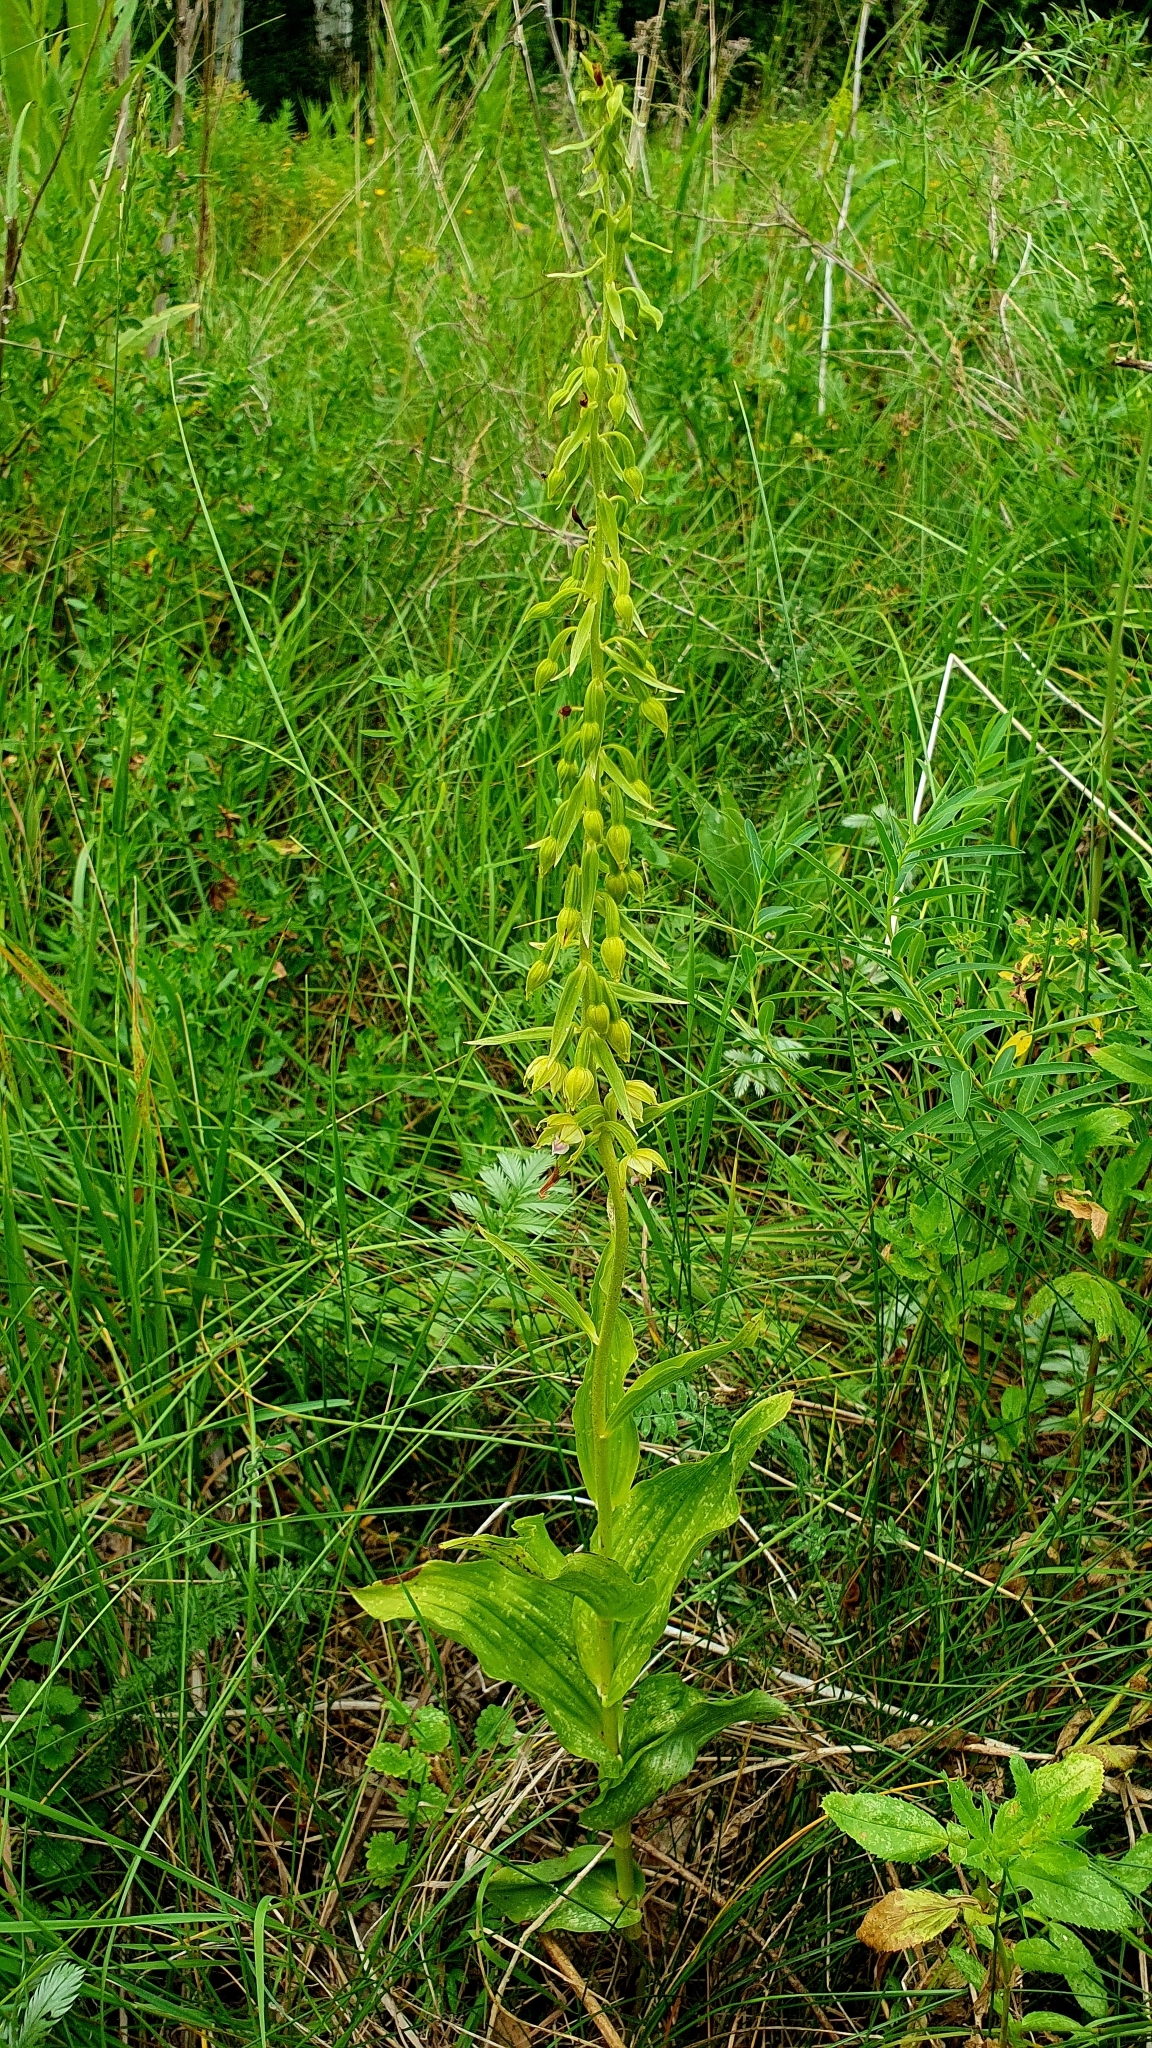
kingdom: Plantae
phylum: Tracheophyta
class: Liliopsida
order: Asparagales
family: Orchidaceae
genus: Epipactis
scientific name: Epipactis helleborine
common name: Broad-leaved helleborine
